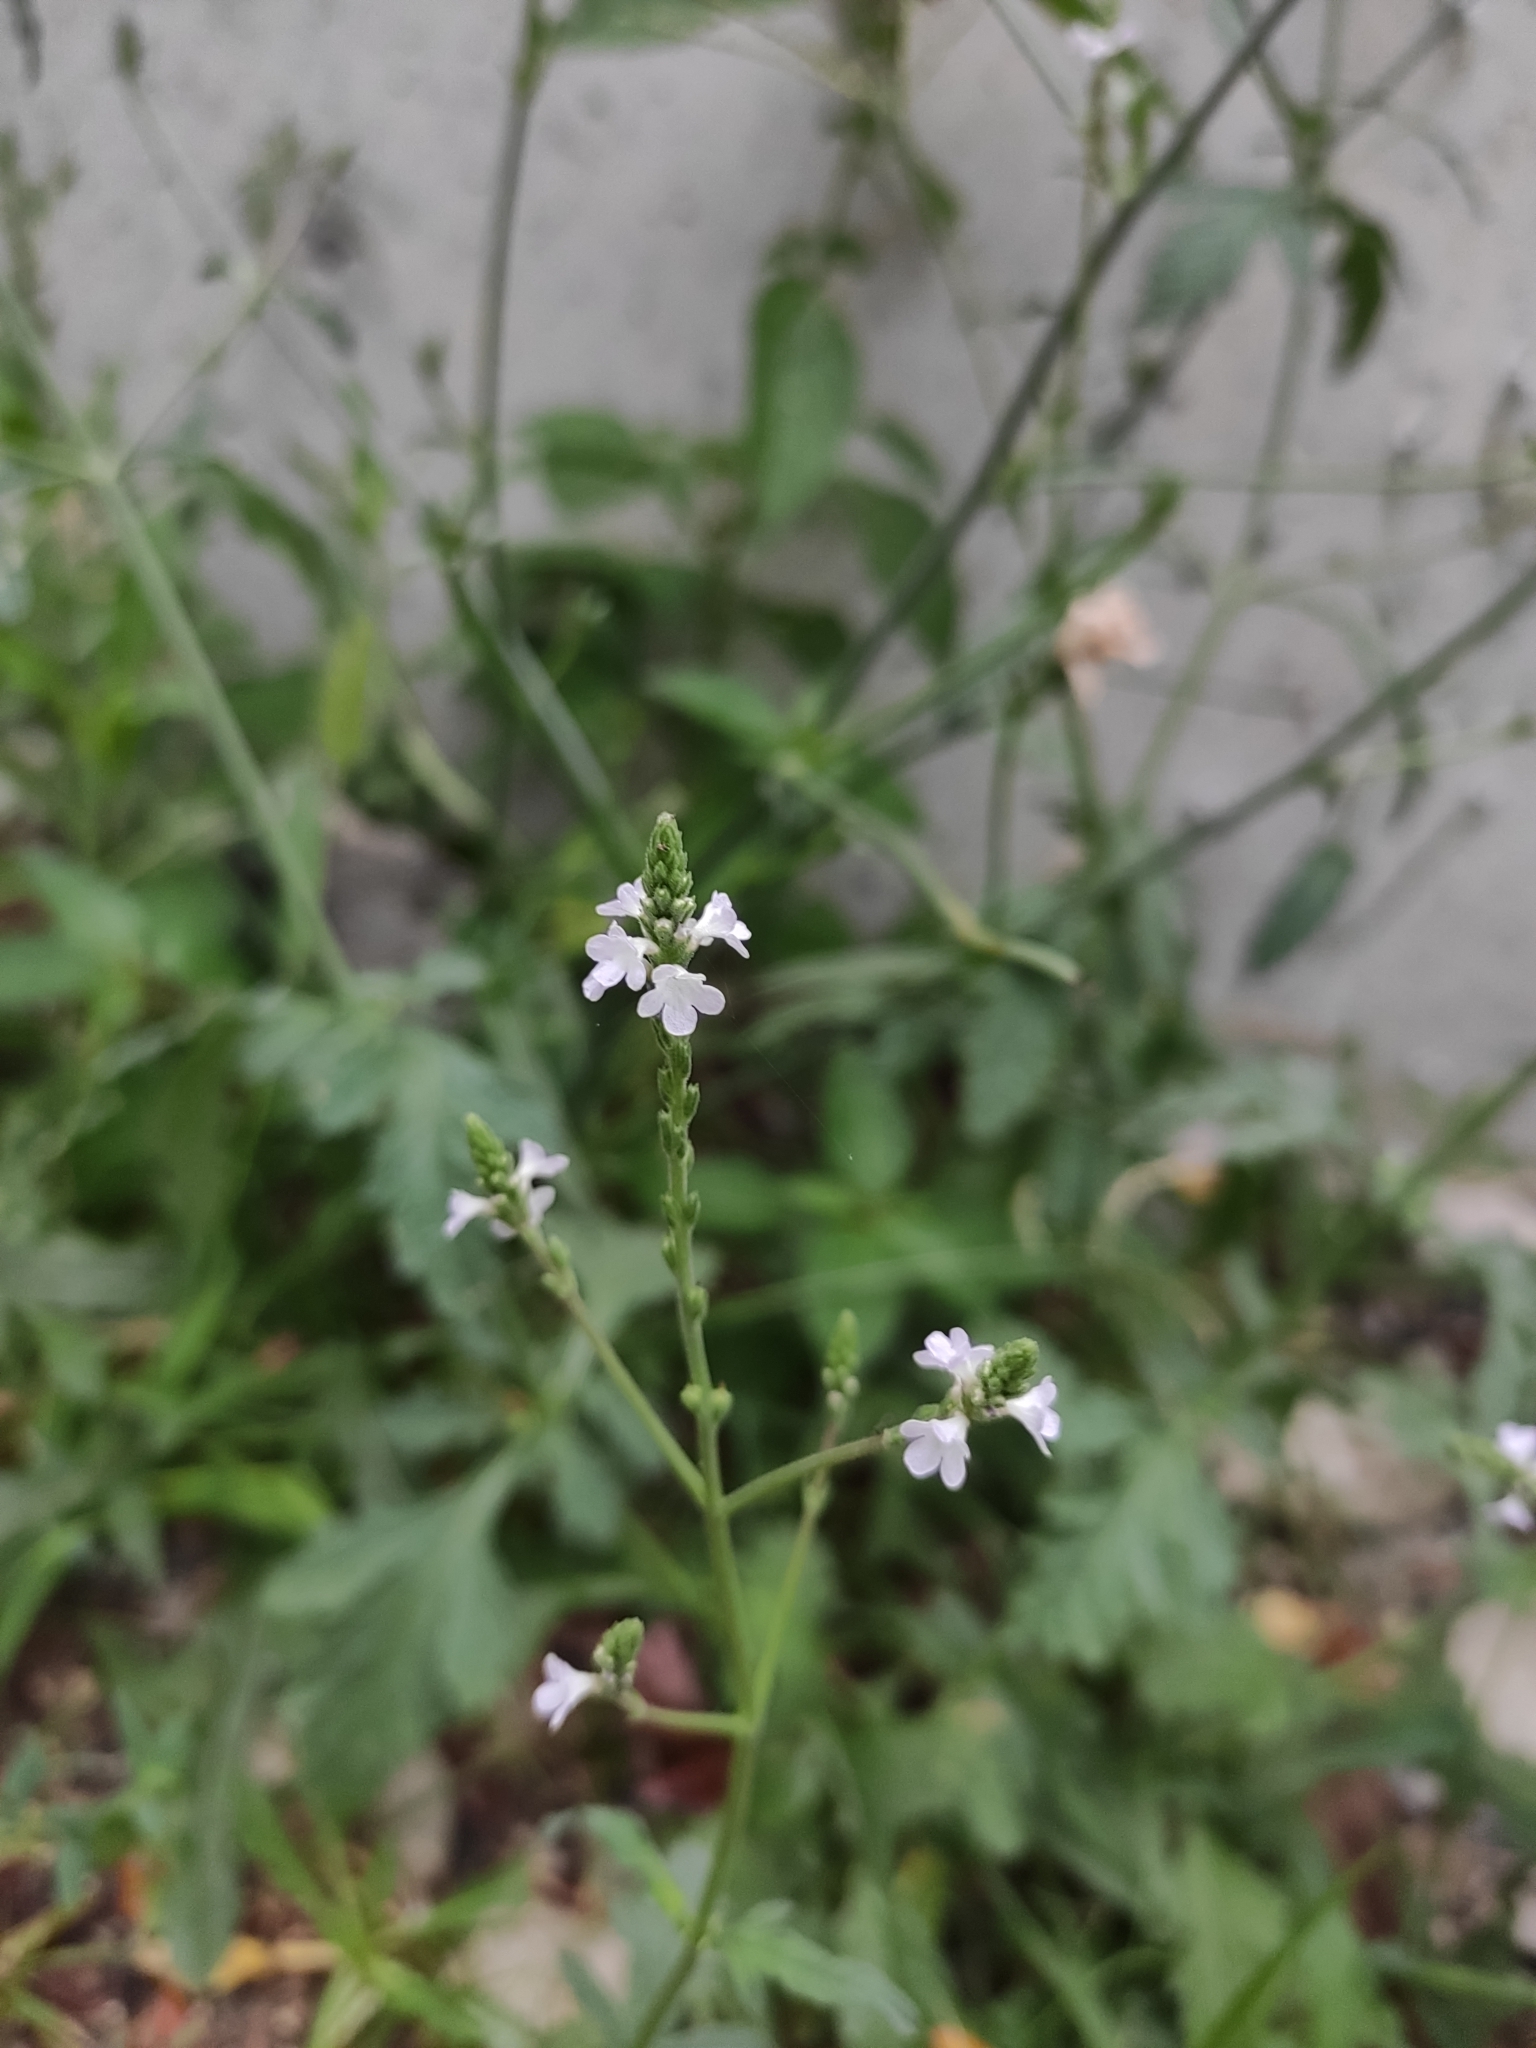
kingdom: Plantae
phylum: Tracheophyta
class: Magnoliopsida
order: Lamiales
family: Verbenaceae
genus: Verbena
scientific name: Verbena officinalis
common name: Vervain
